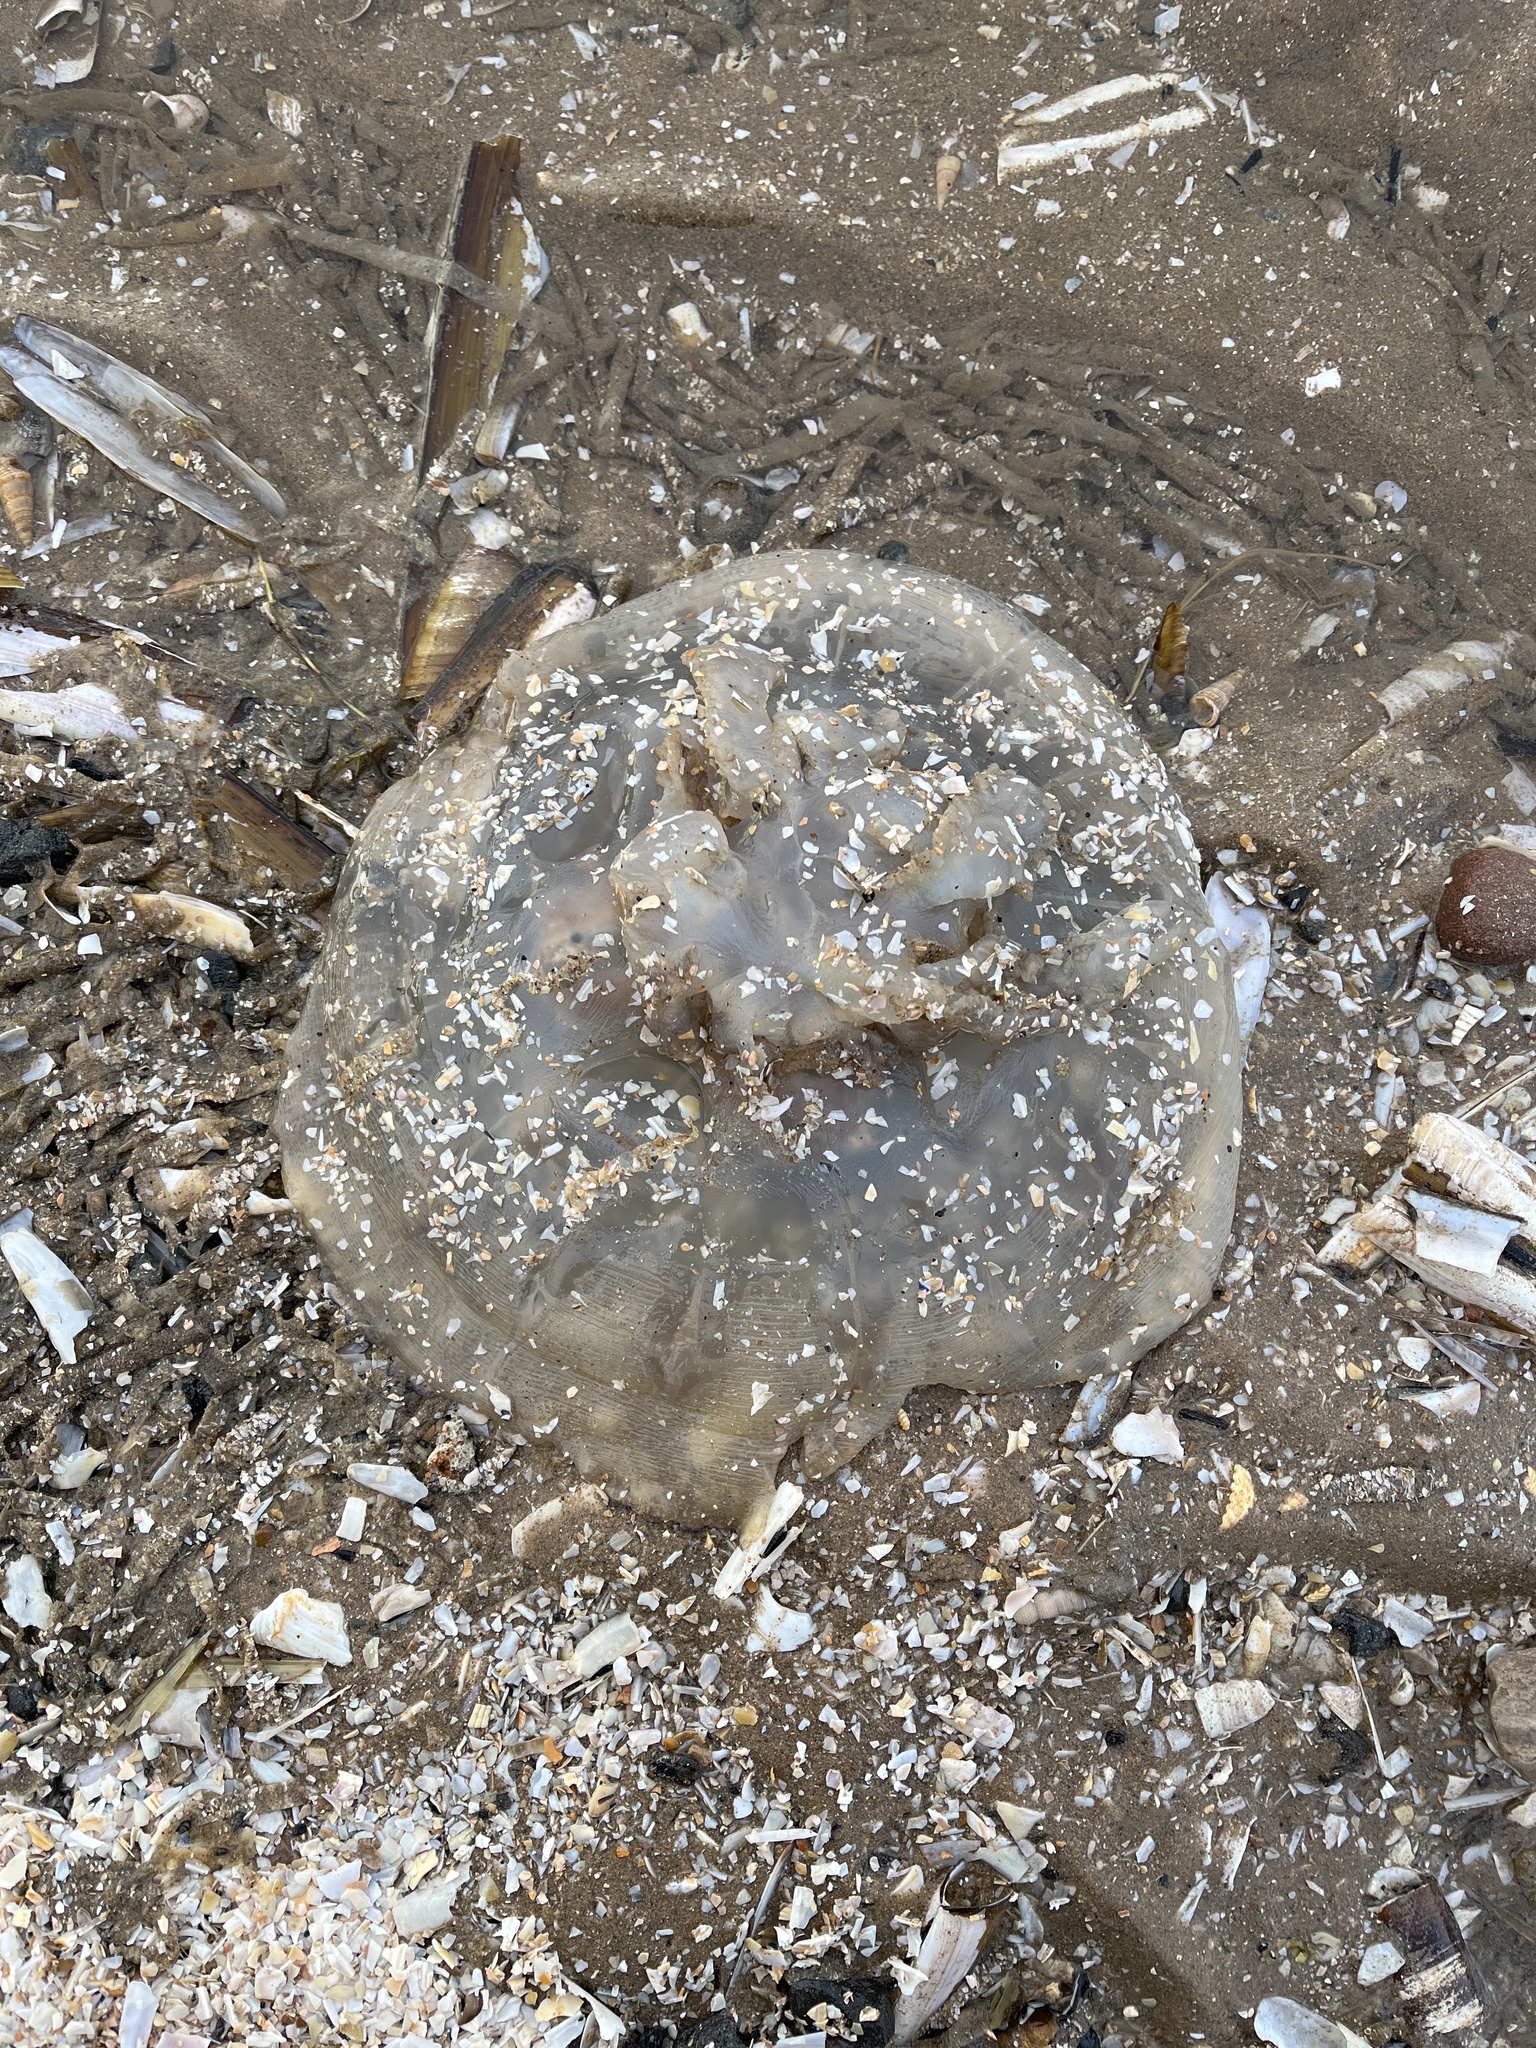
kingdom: Animalia
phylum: Cnidaria
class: Scyphozoa
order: Rhizostomeae
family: Rhizostomatidae
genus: Rhizostoma
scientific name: Rhizostoma octopus
